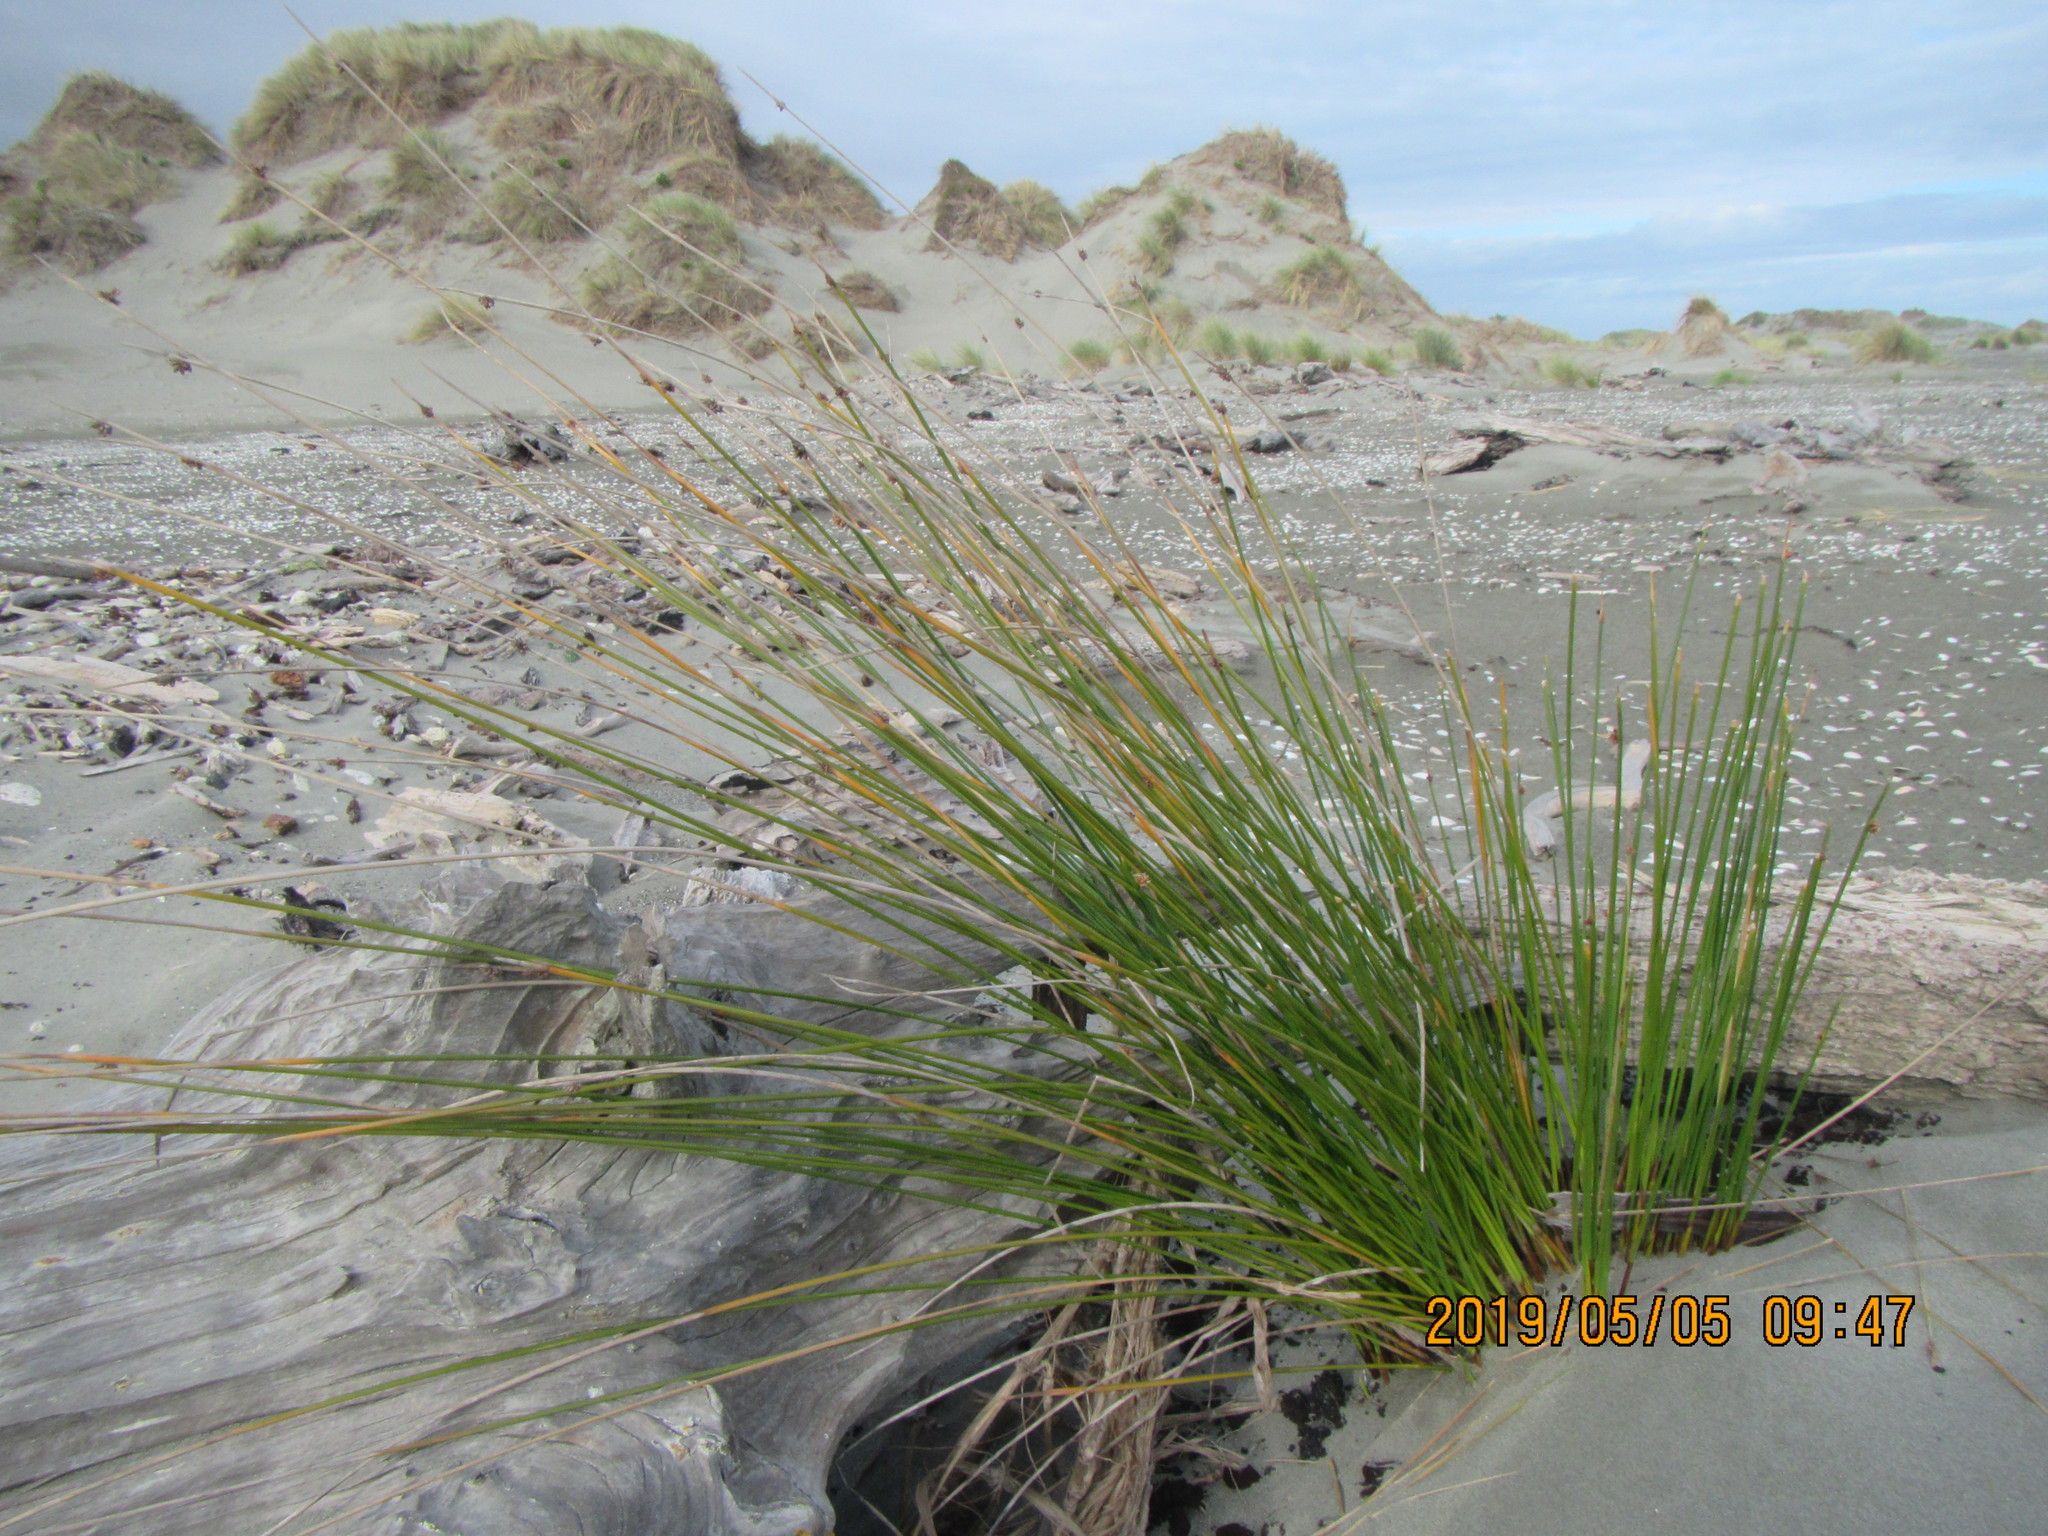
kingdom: Plantae
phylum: Tracheophyta
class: Liliopsida
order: Poales
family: Cyperaceae
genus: Ficinia
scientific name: Ficinia nodosa
